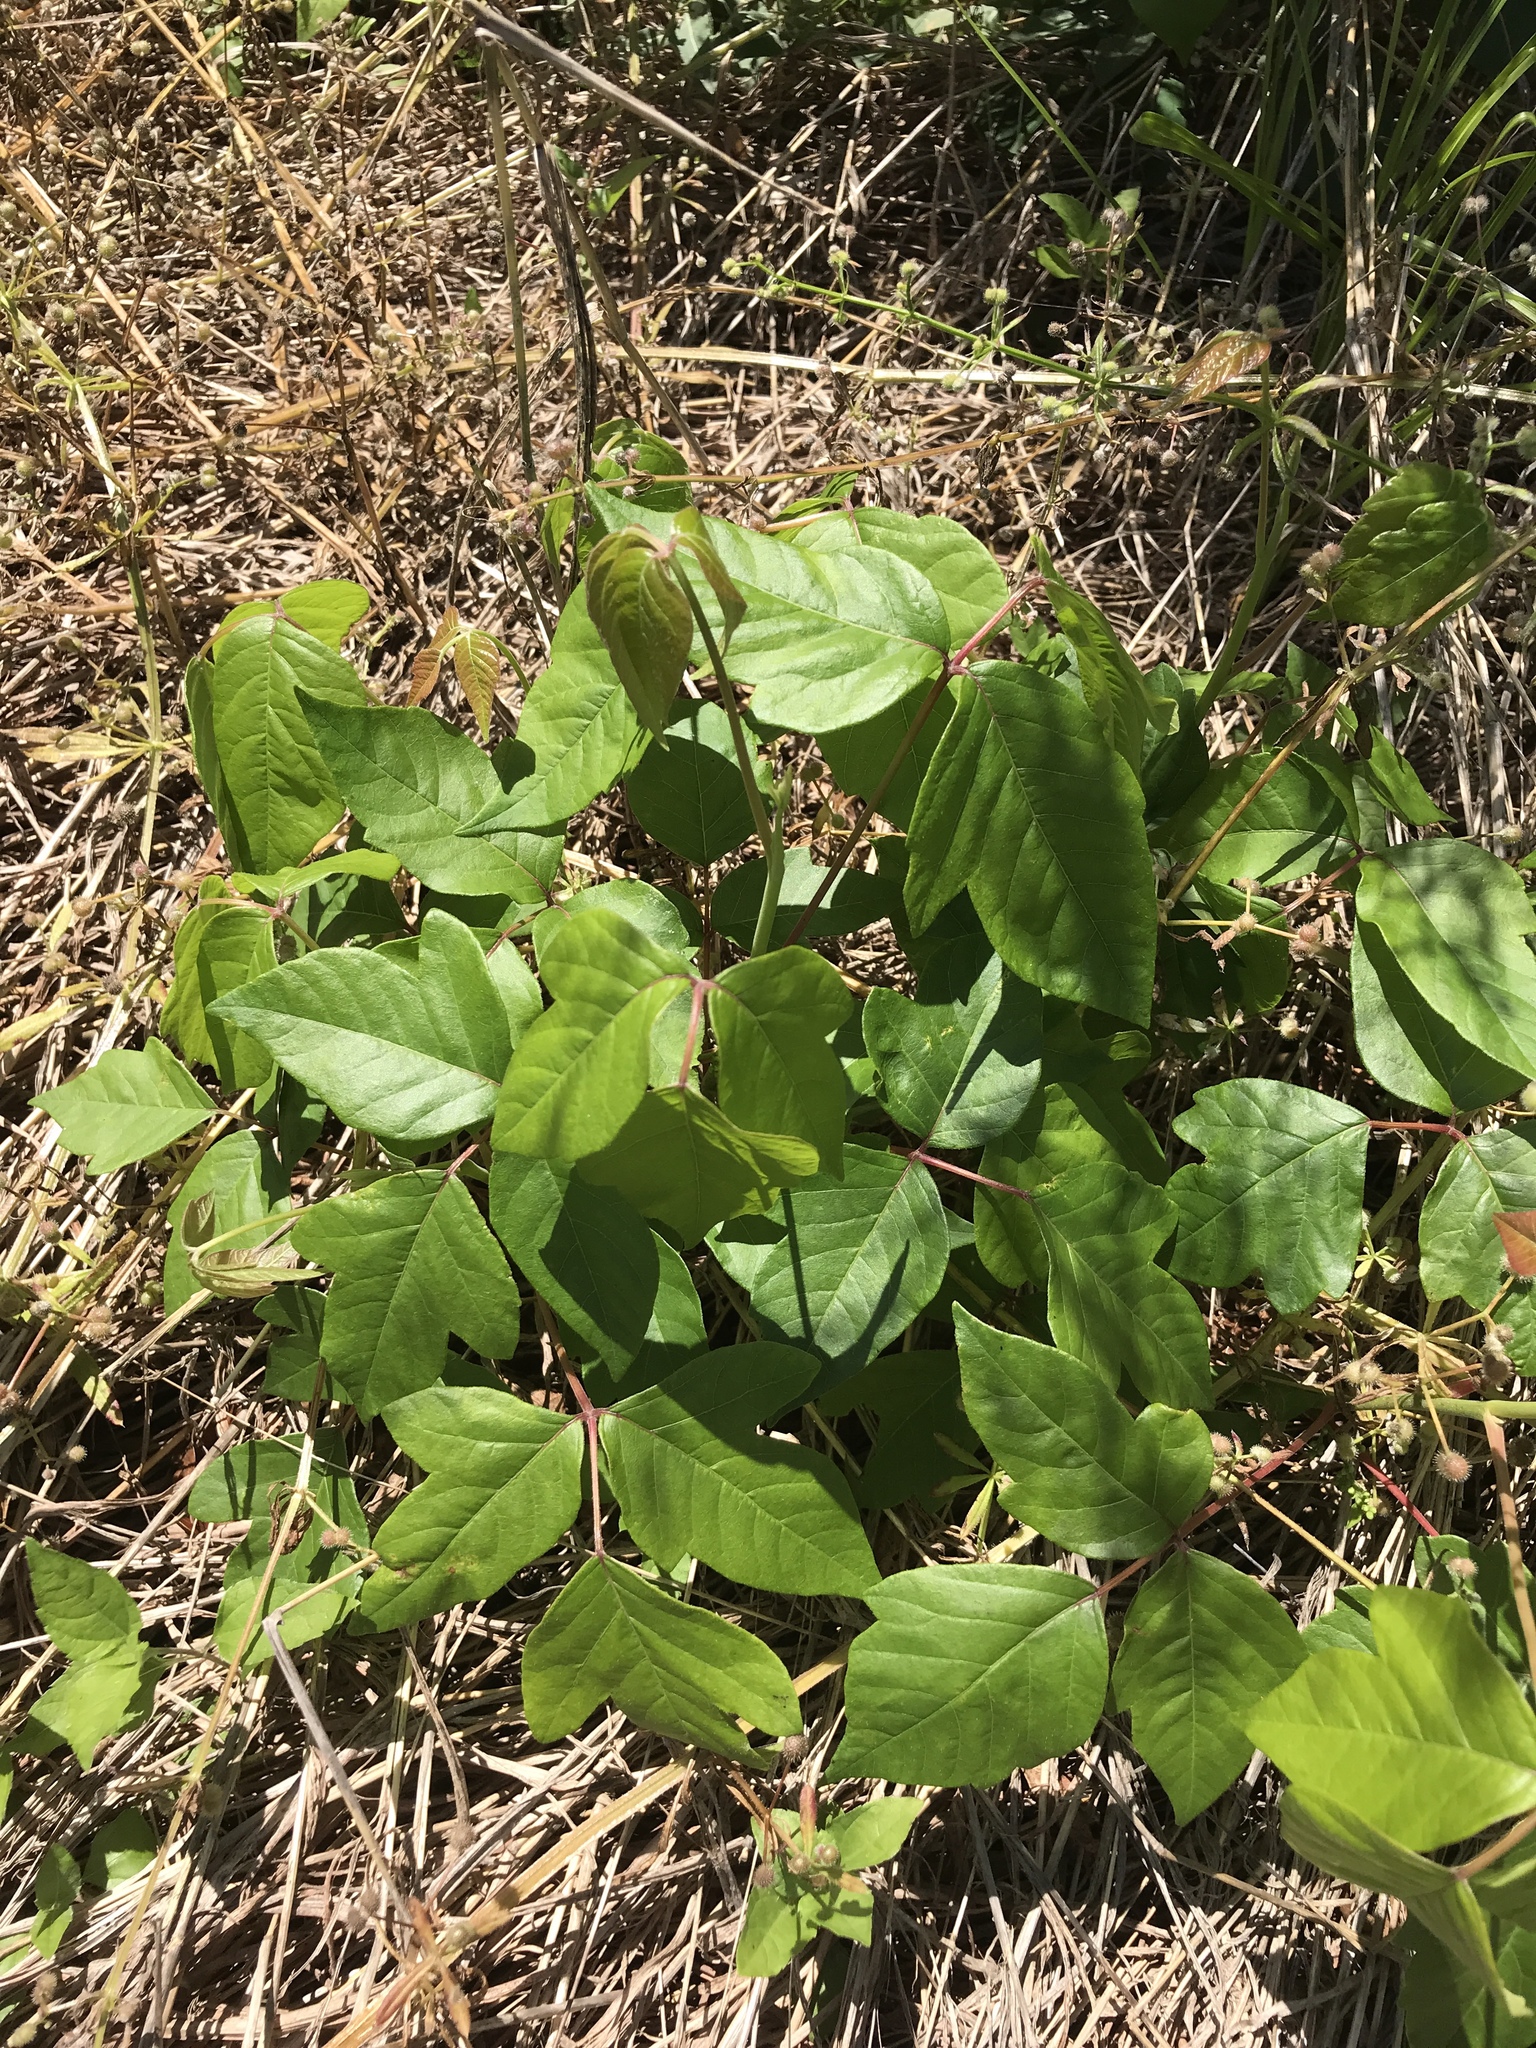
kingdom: Plantae
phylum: Tracheophyta
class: Magnoliopsida
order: Sapindales
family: Anacardiaceae
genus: Toxicodendron
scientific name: Toxicodendron radicans
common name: Poison ivy
